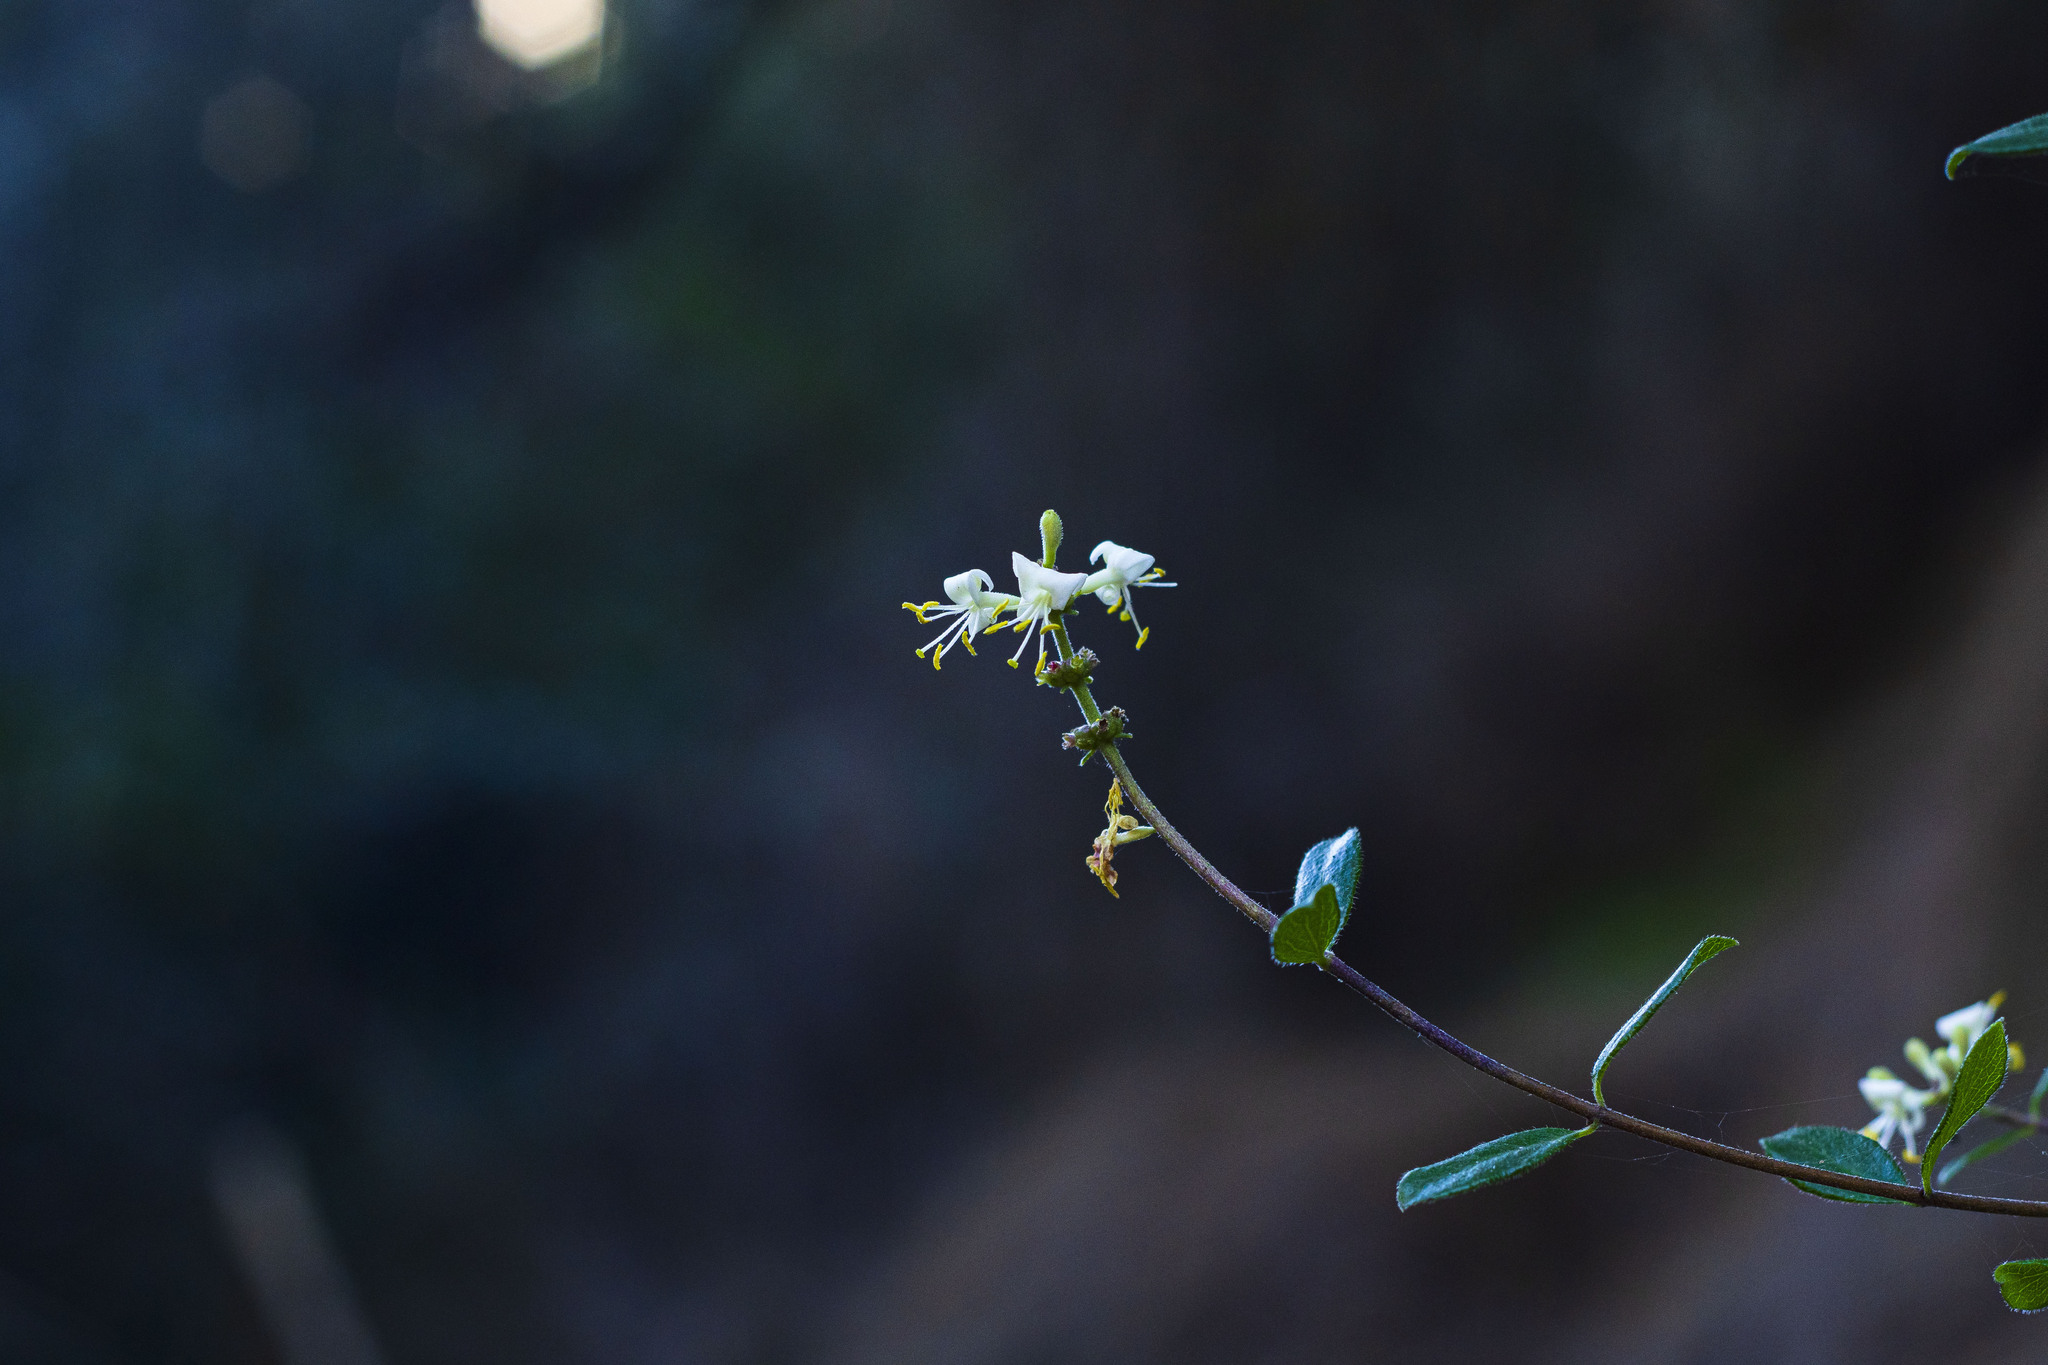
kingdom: Plantae
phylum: Tracheophyta
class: Magnoliopsida
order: Dipsacales
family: Caprifoliaceae
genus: Lonicera
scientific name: Lonicera subspicata
